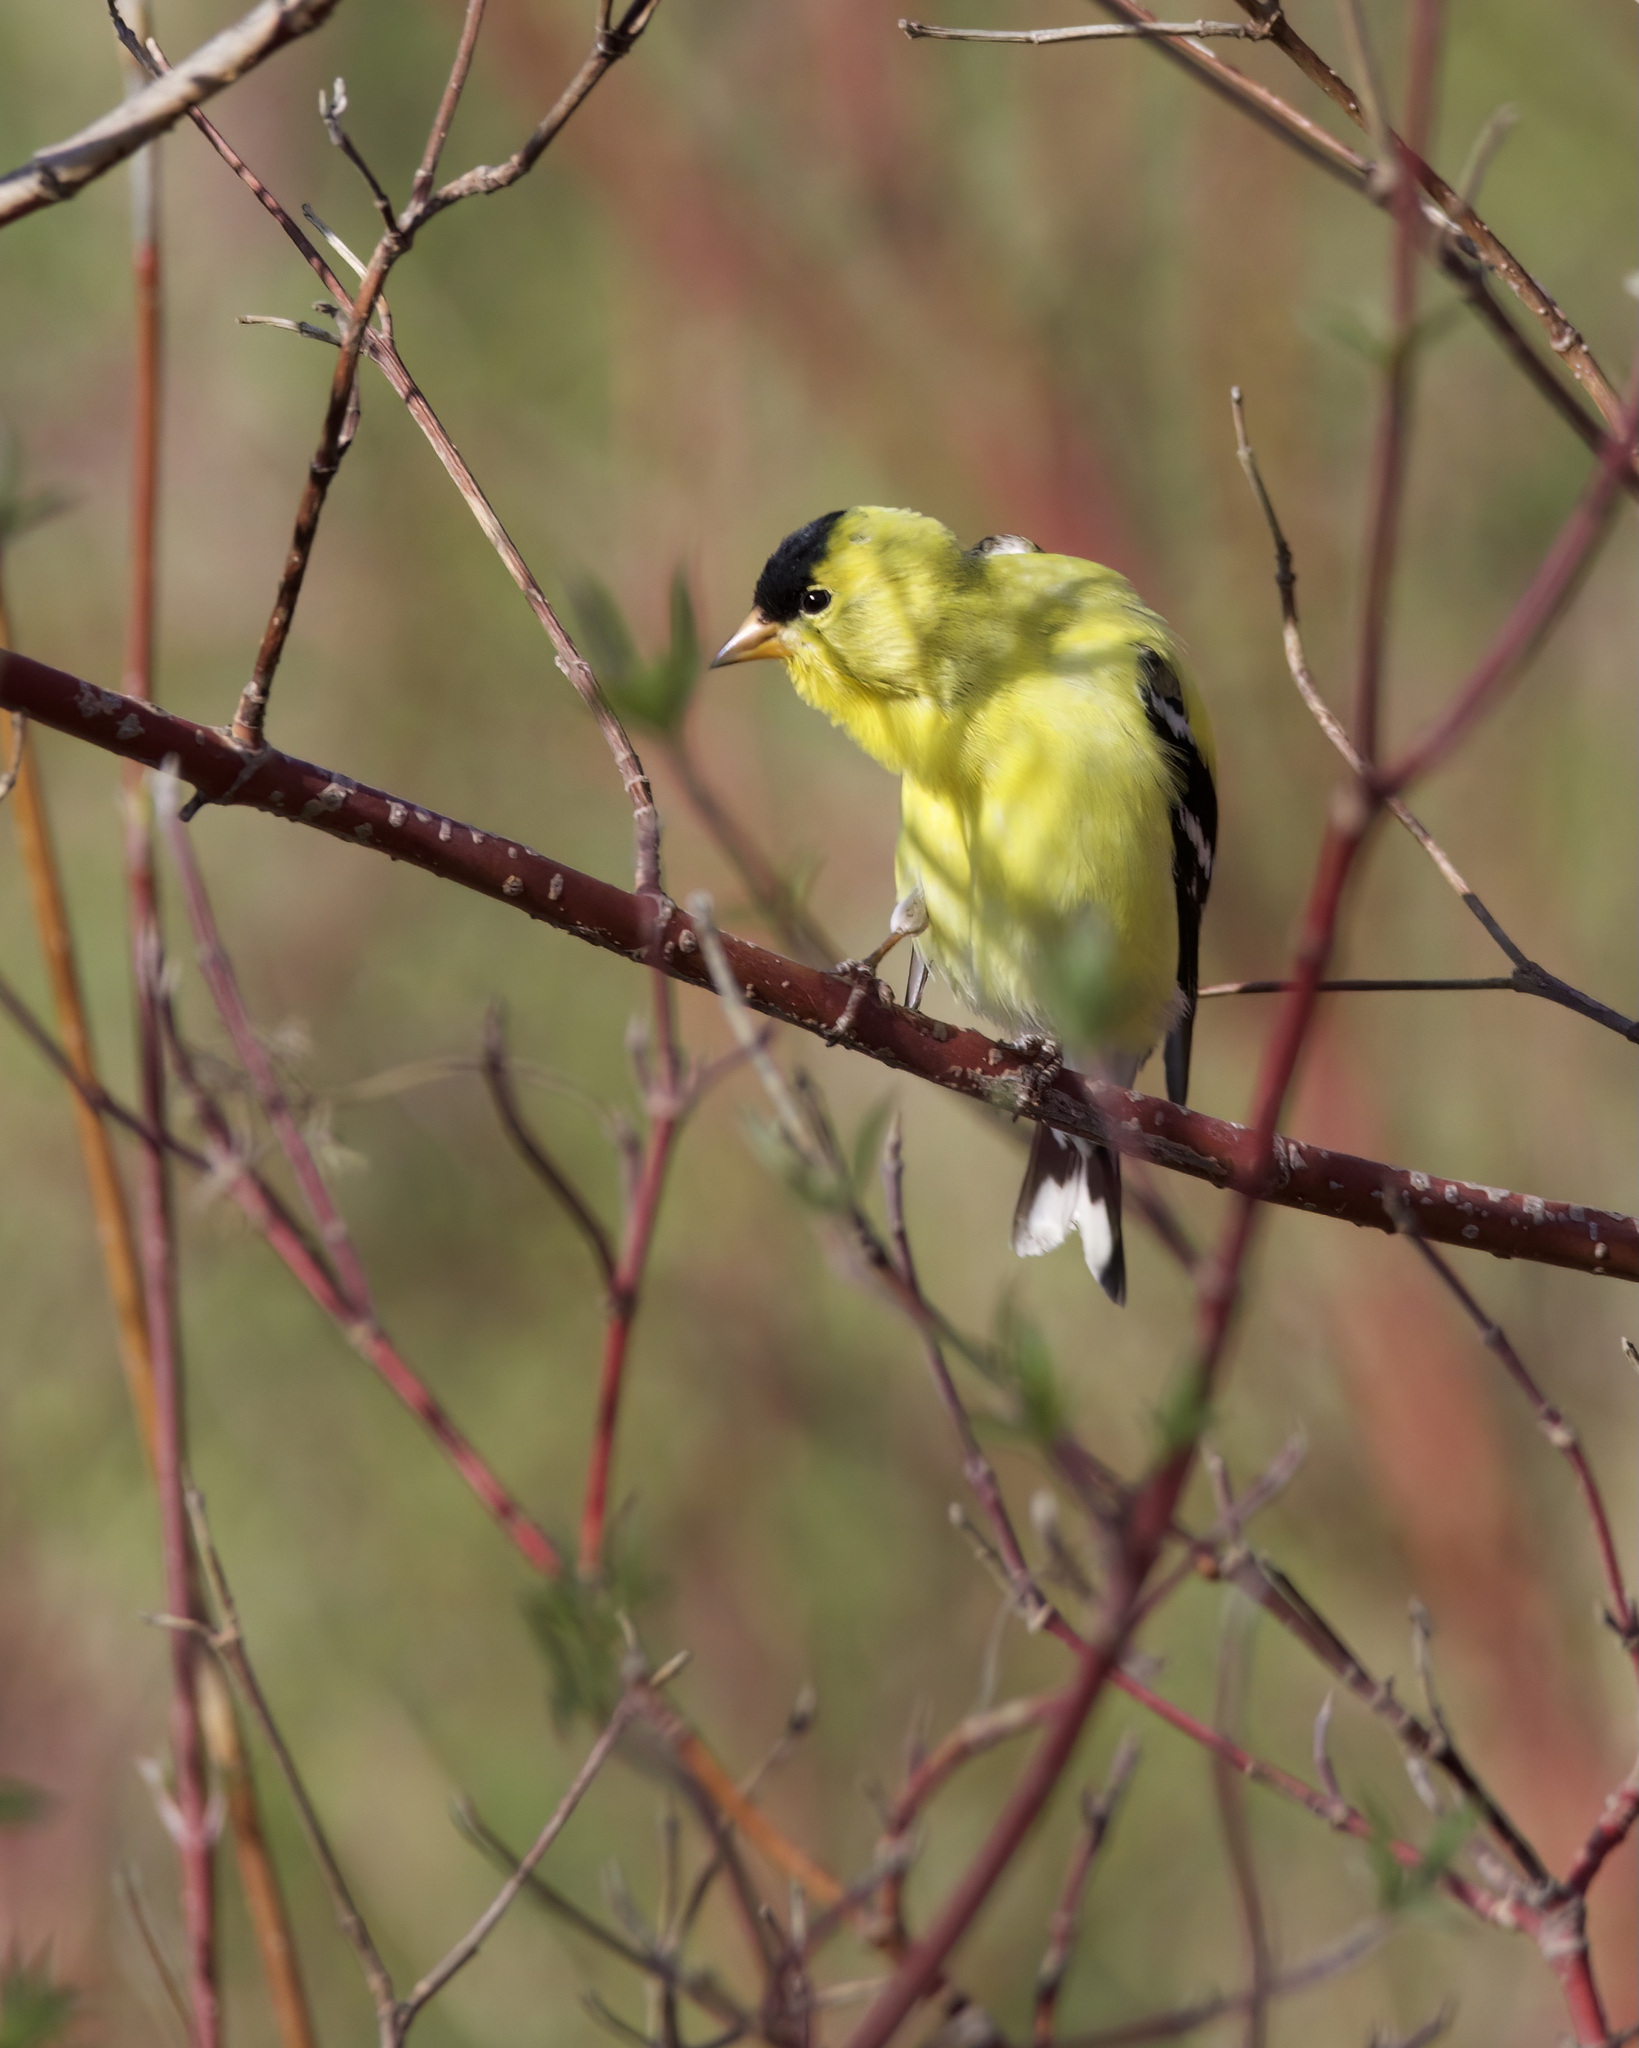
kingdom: Animalia
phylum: Chordata
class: Aves
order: Passeriformes
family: Fringillidae
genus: Spinus
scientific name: Spinus tristis
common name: American goldfinch
